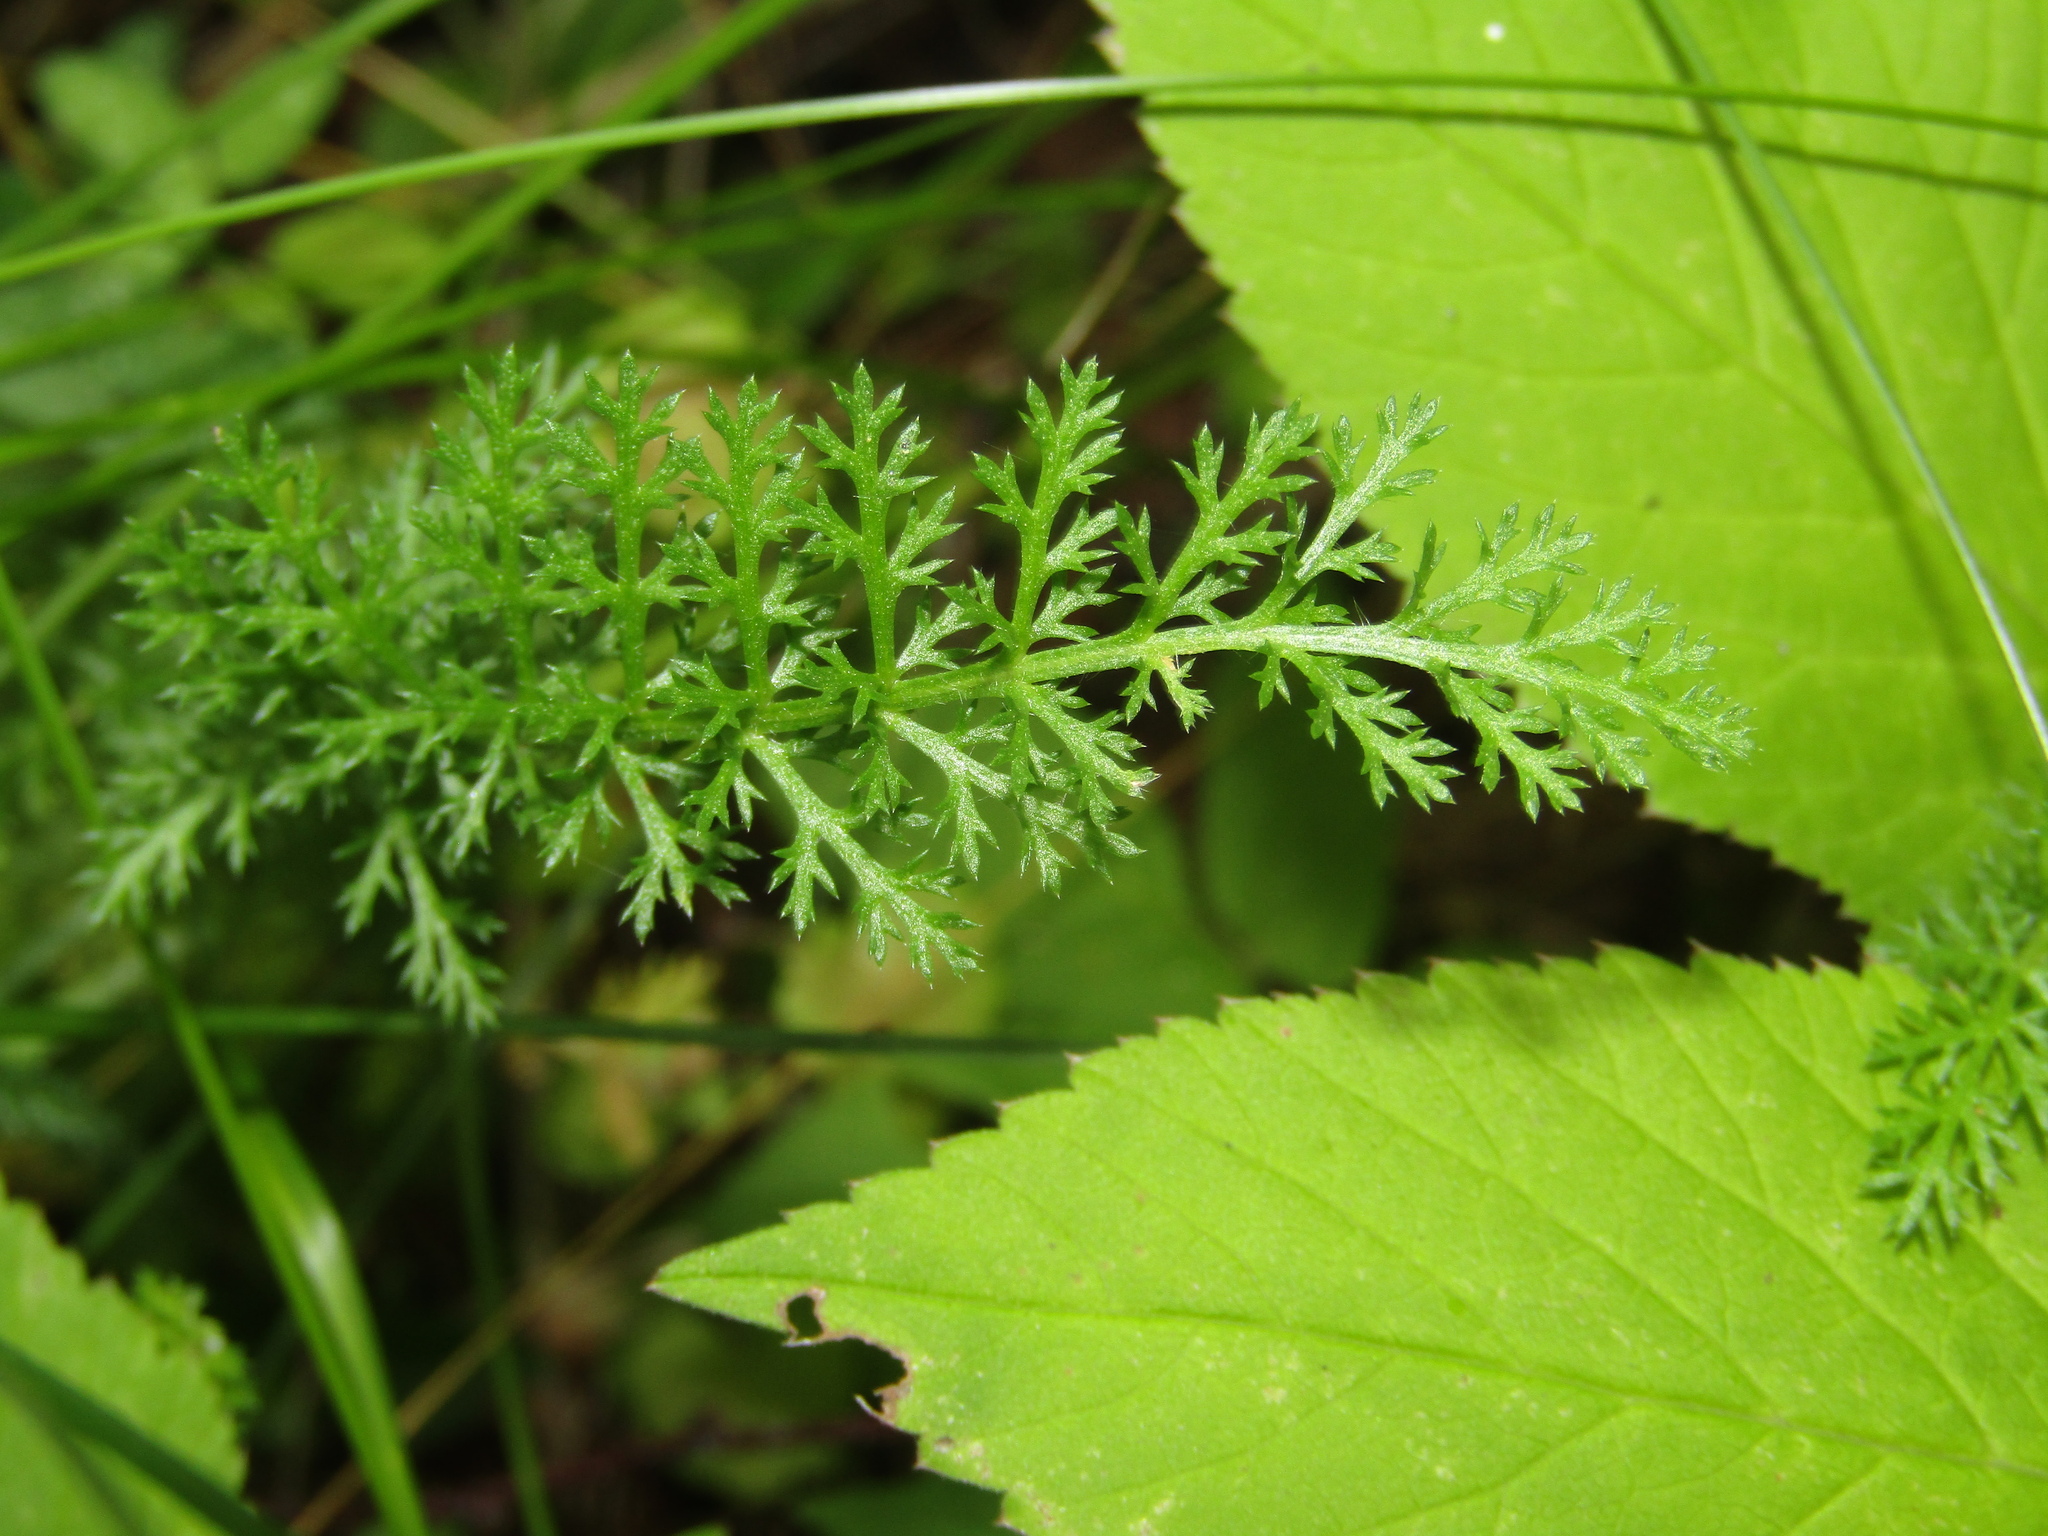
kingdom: Plantae
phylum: Tracheophyta
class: Magnoliopsida
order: Asterales
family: Asteraceae
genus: Achillea
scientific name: Achillea millefolium
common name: Yarrow
